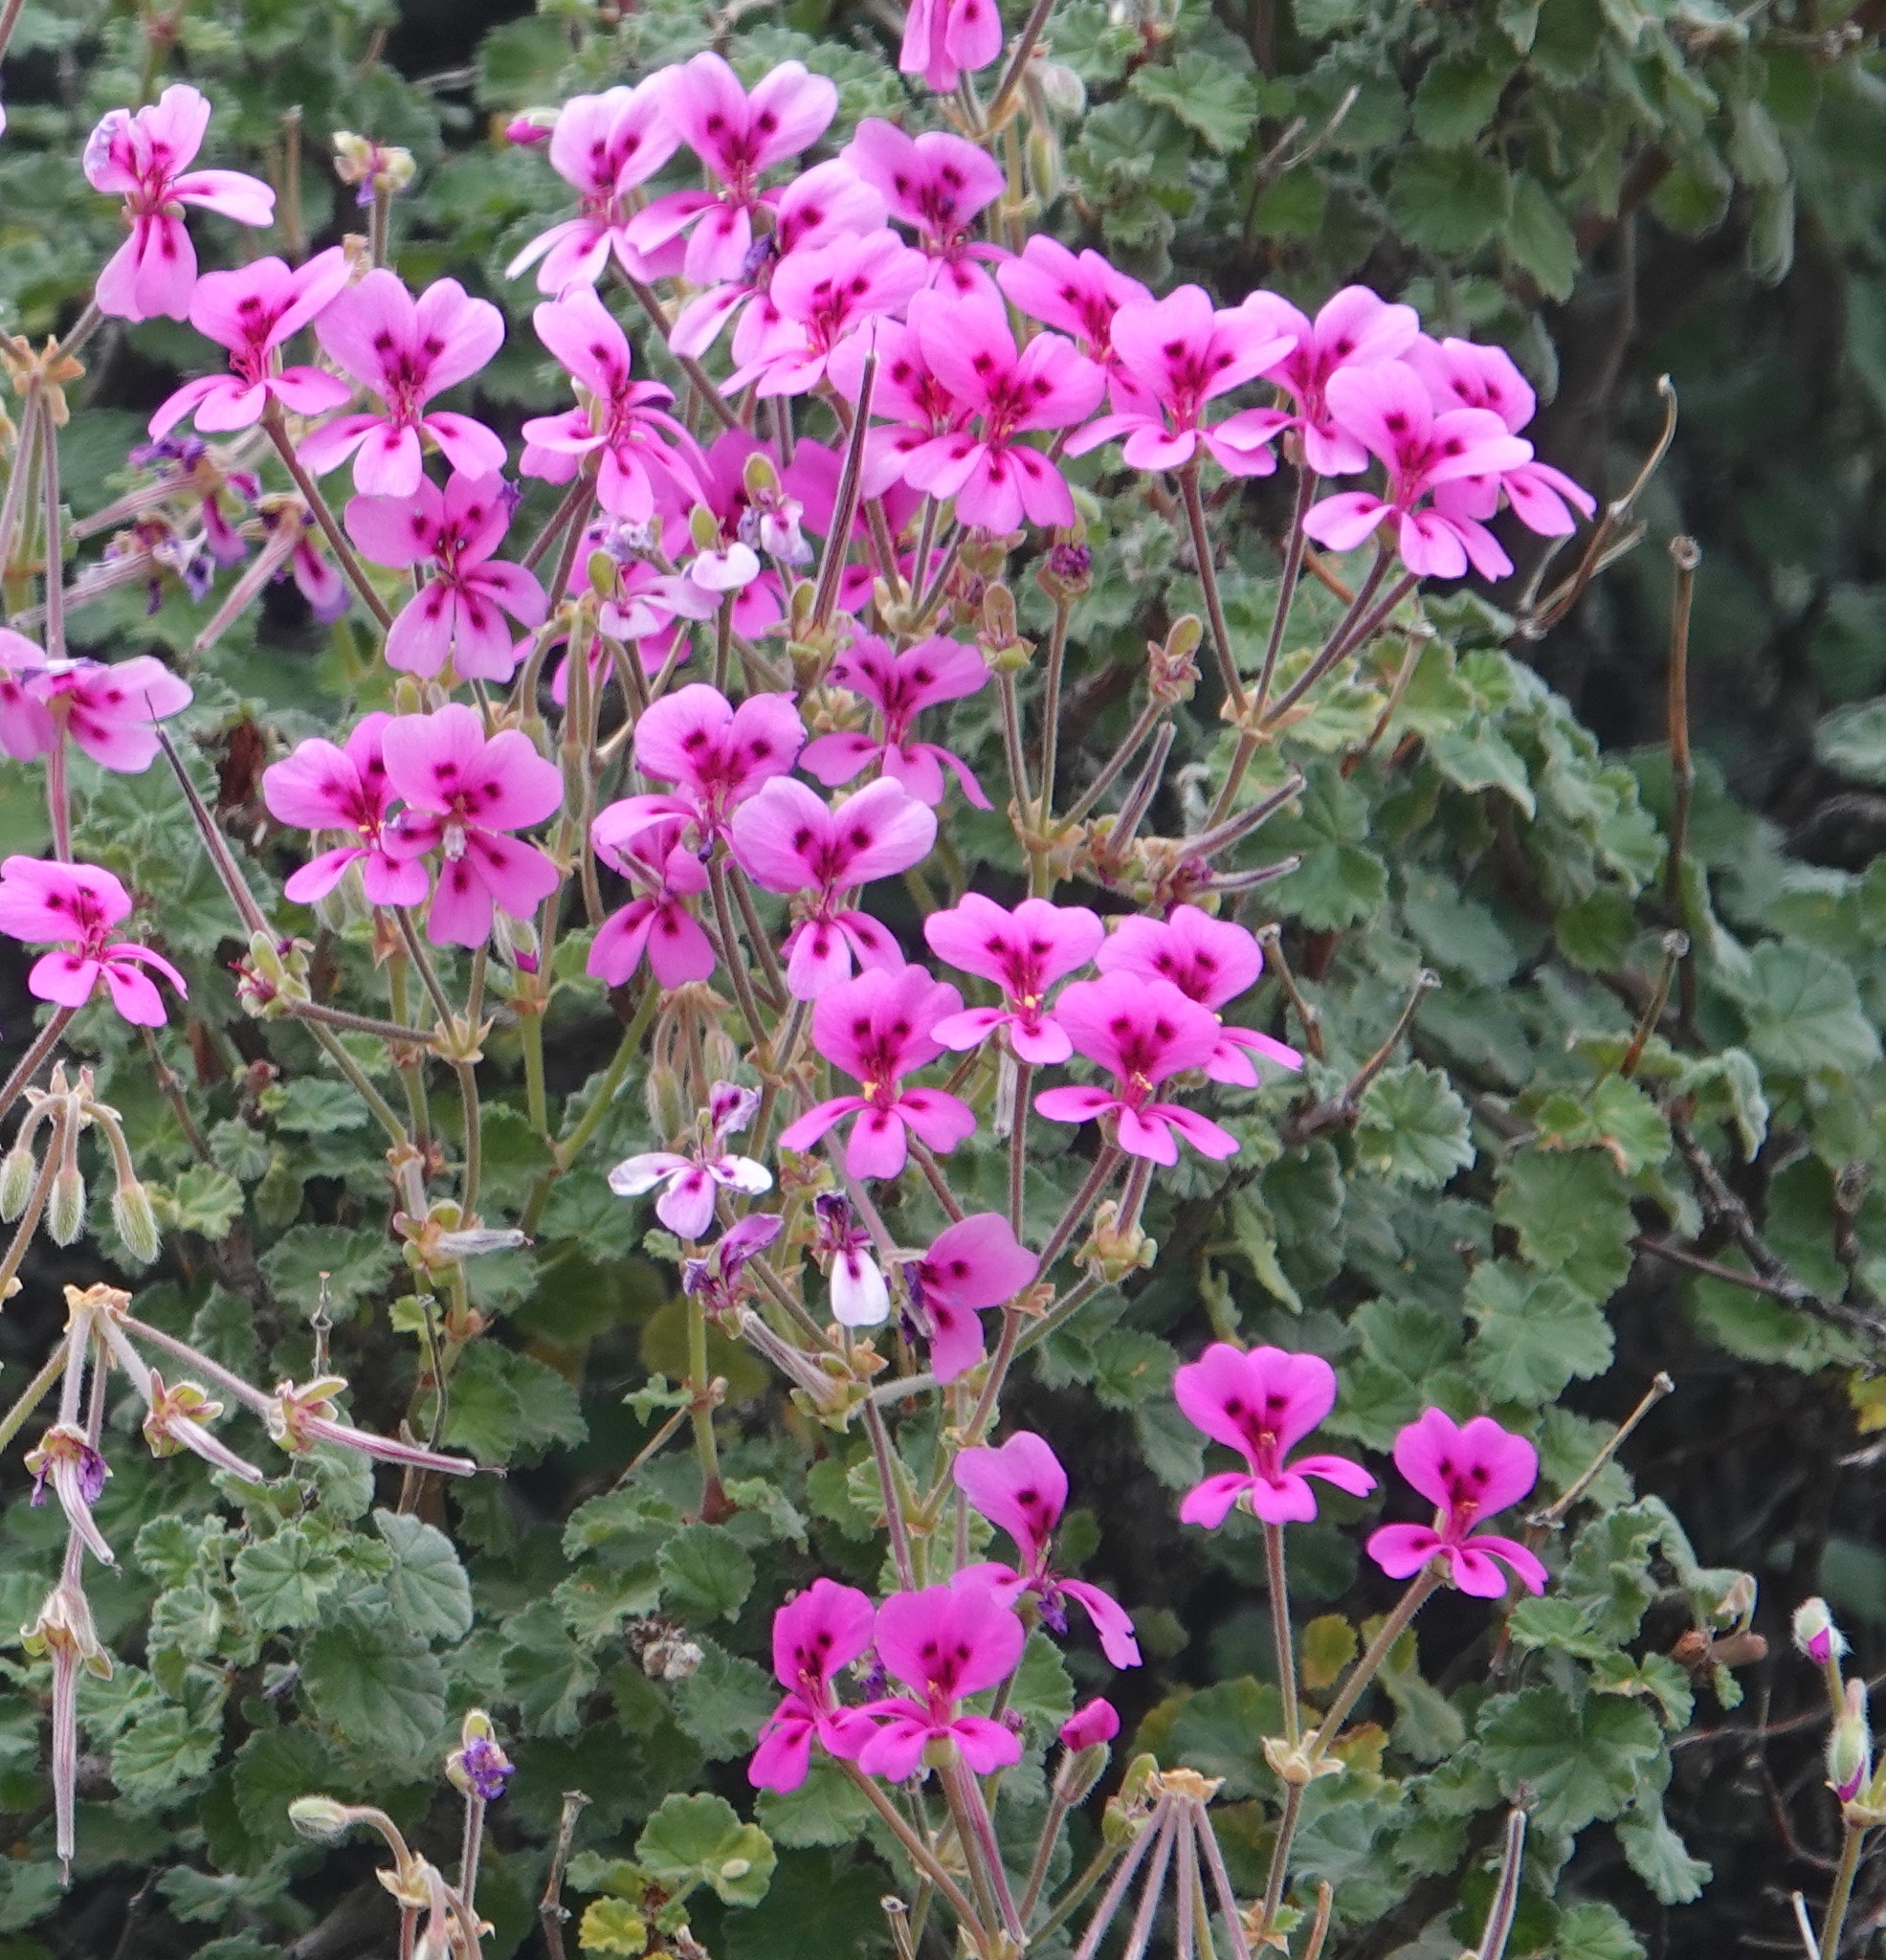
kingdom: Plantae
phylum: Tracheophyta
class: Magnoliopsida
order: Geraniales
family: Geraniaceae
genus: Pelargonium
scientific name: Pelargonium magenteum
